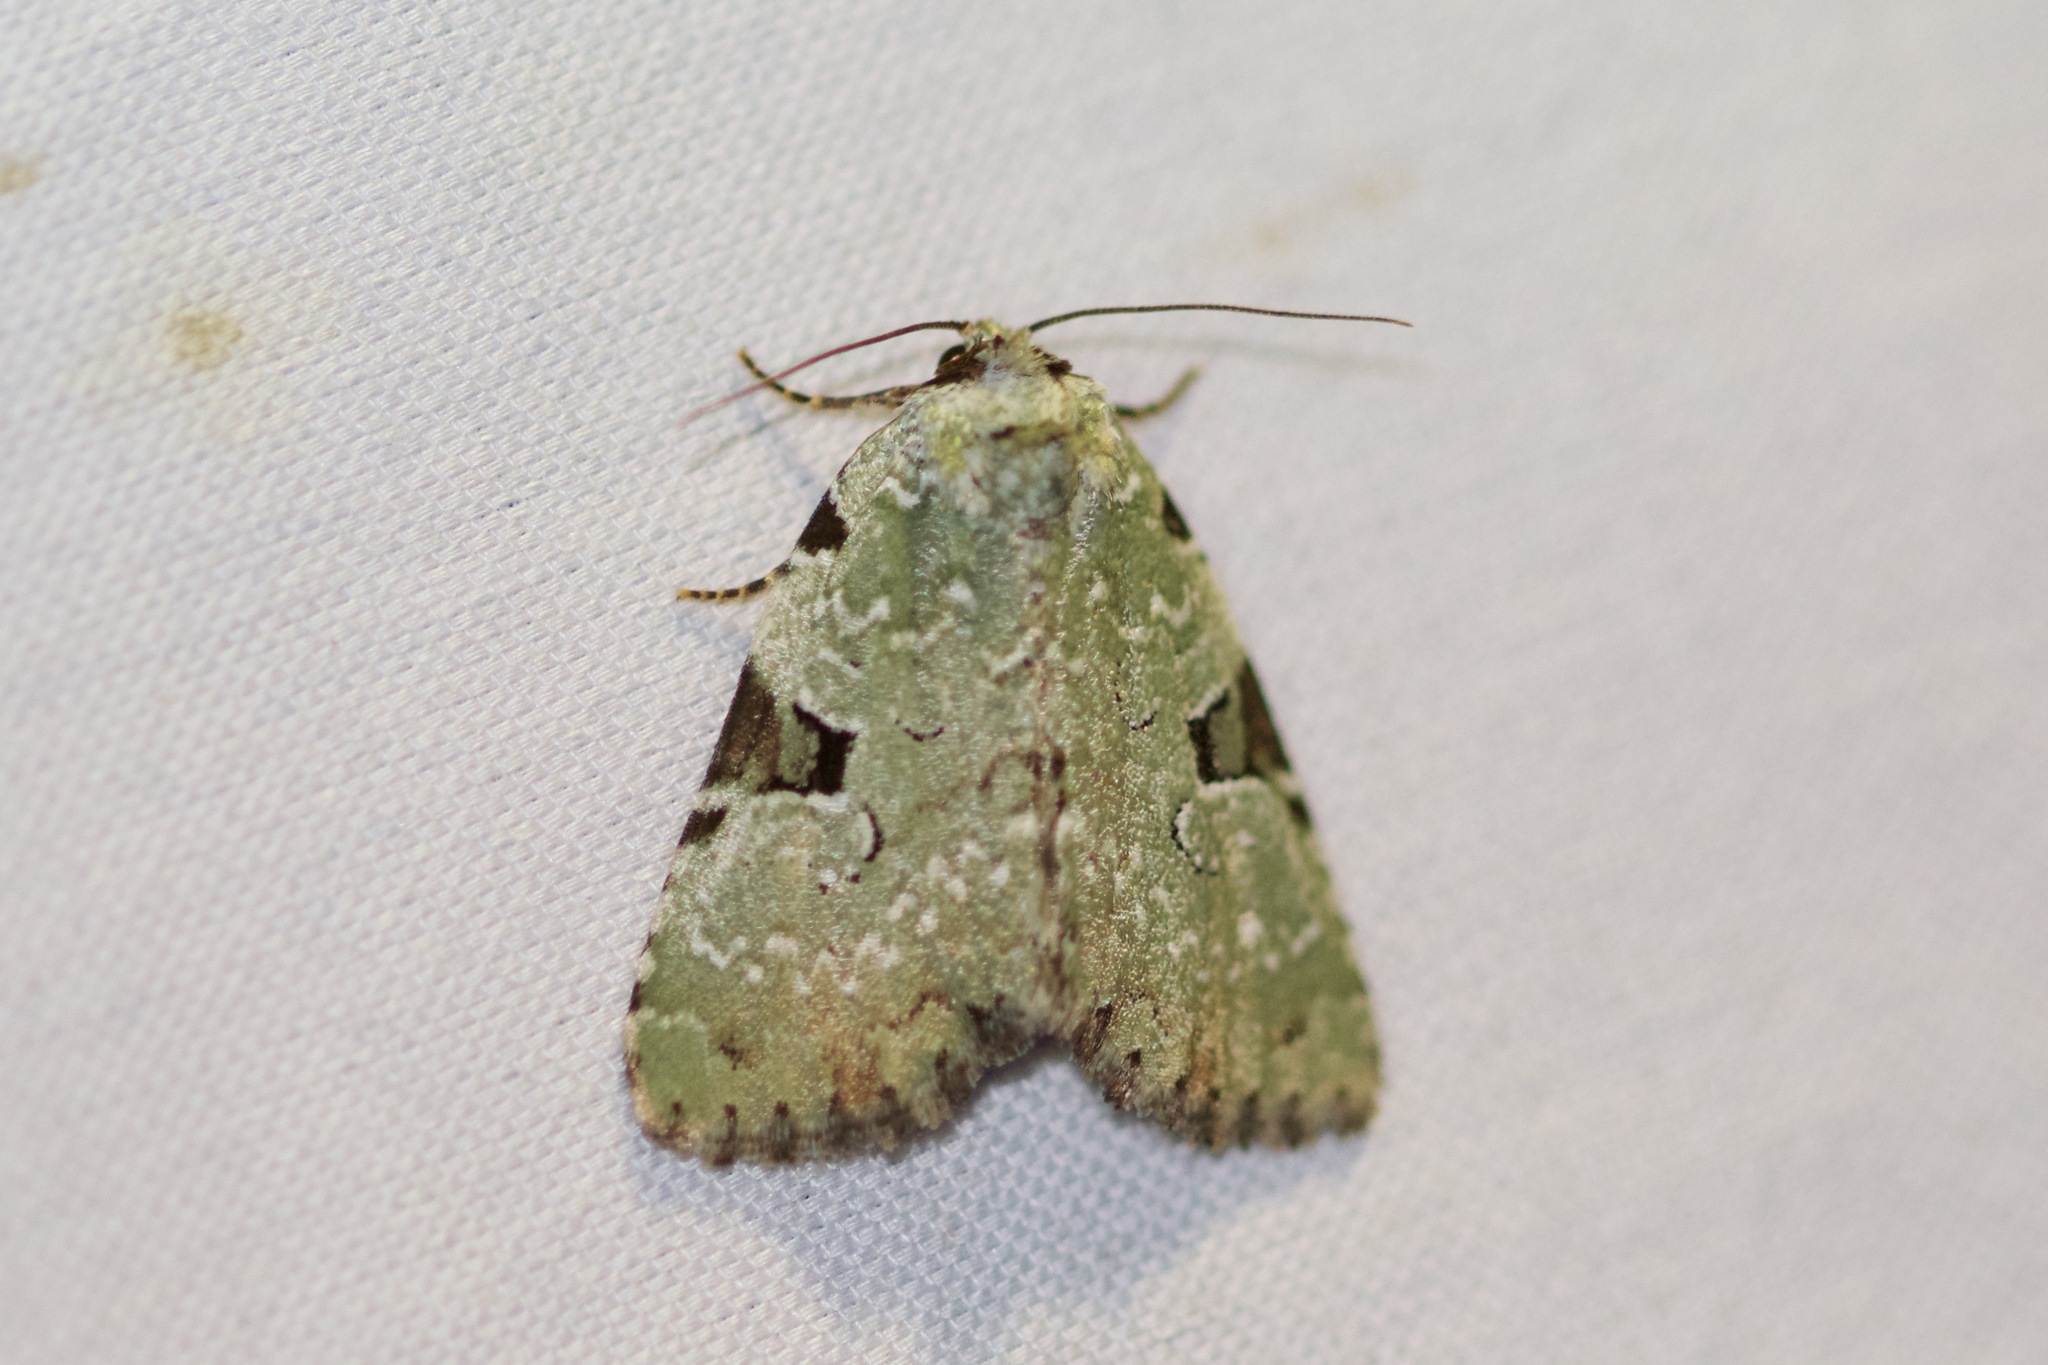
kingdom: Animalia
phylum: Arthropoda
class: Insecta
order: Lepidoptera
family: Noctuidae
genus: Leuconycta
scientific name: Leuconycta diphteroides
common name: Green leuconycta moth
